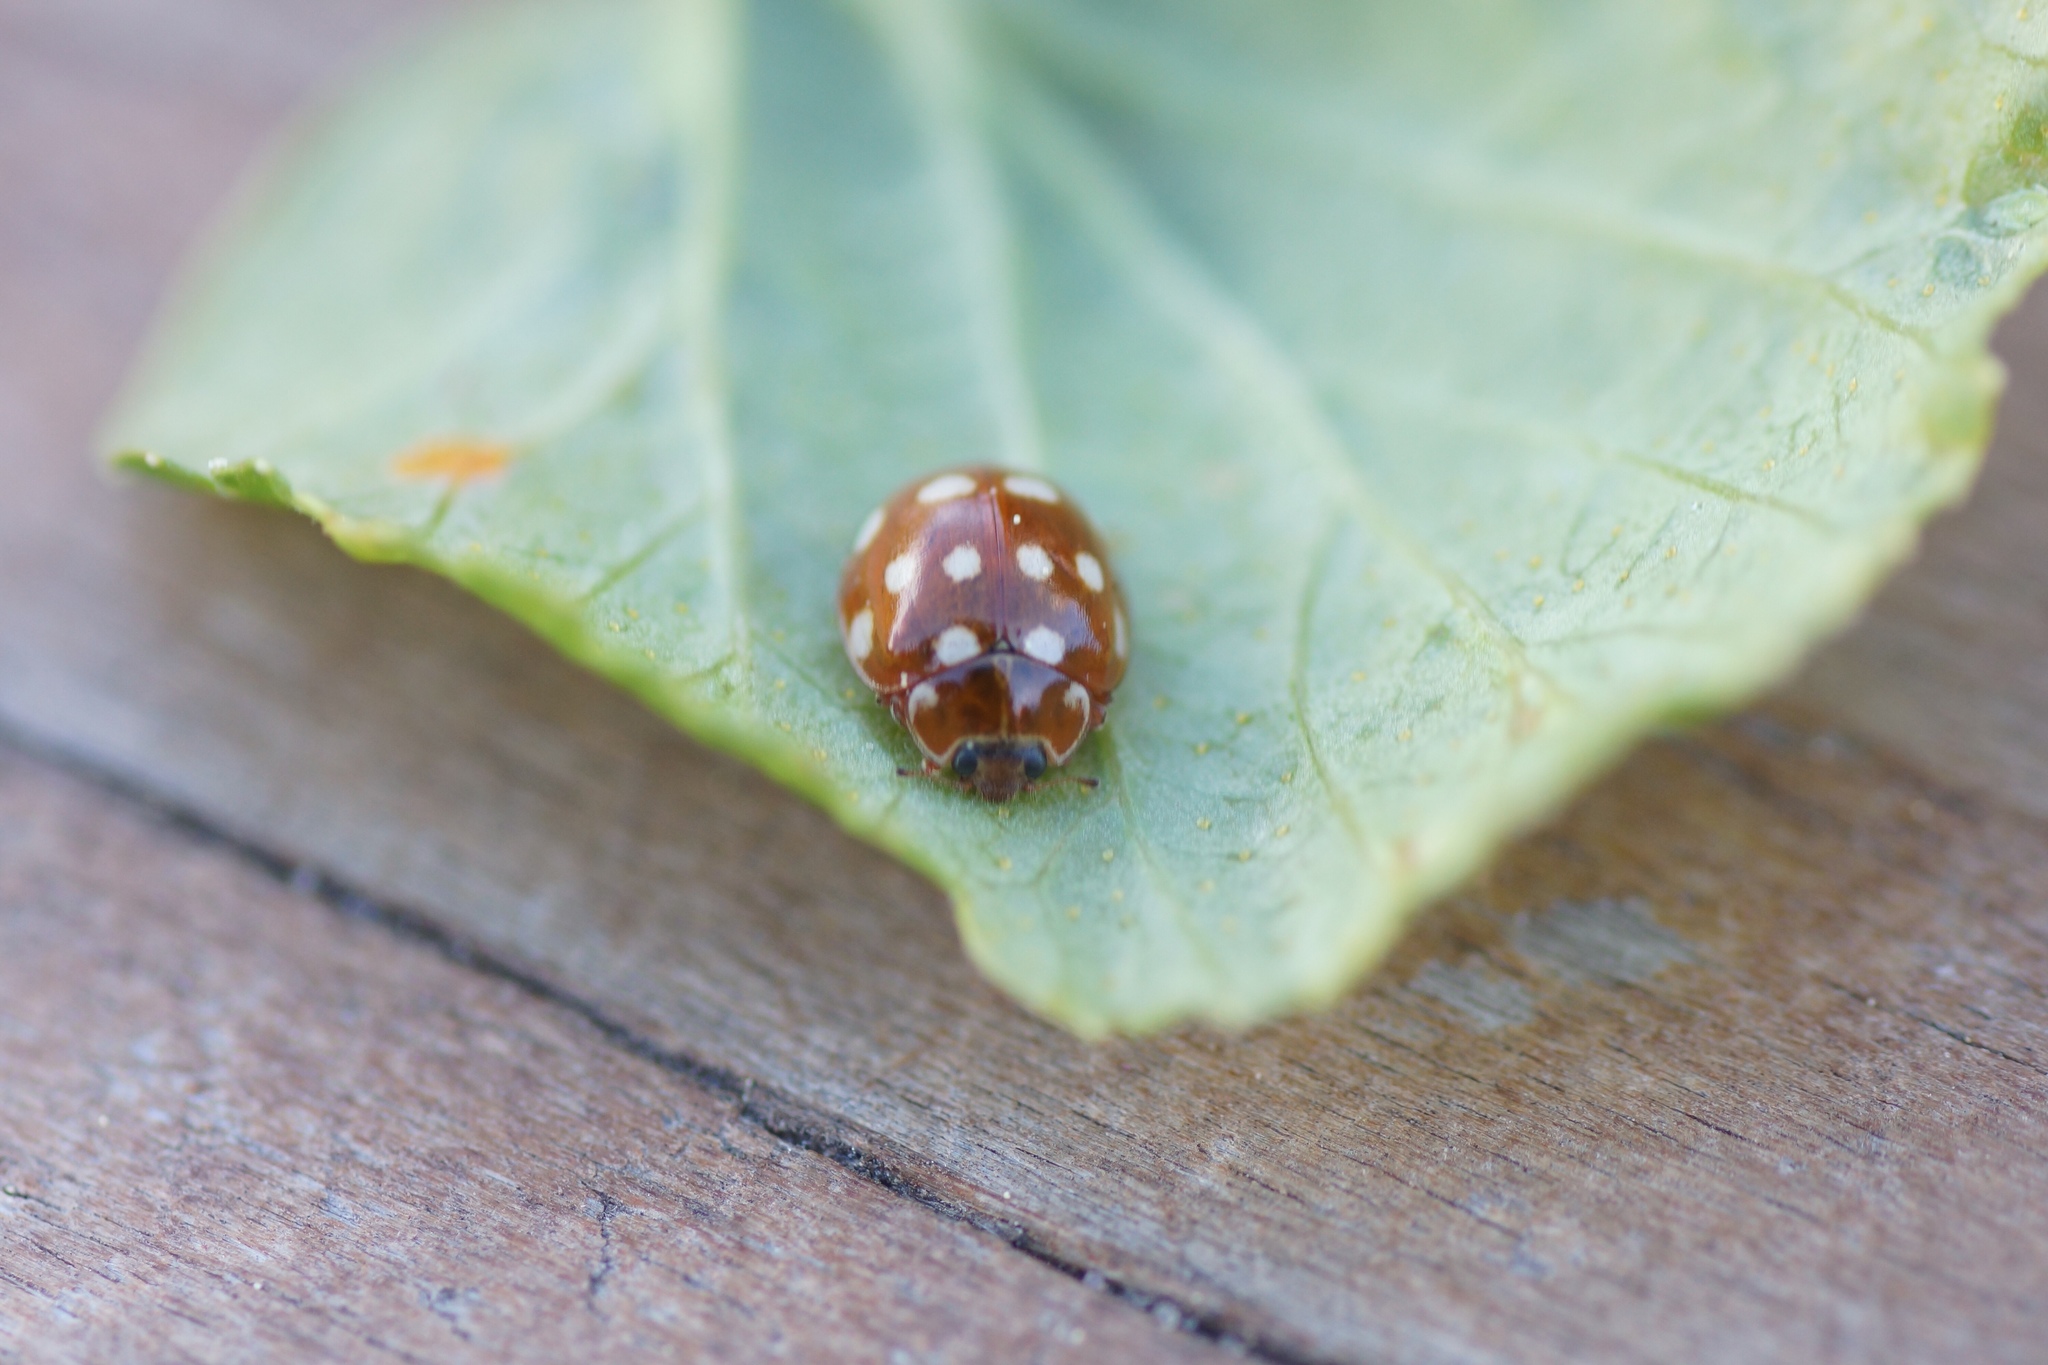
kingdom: Animalia
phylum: Arthropoda
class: Insecta
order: Coleoptera
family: Coccinellidae
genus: Calvia
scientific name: Calvia quatuordecimguttata
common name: Cream-spot ladybird
